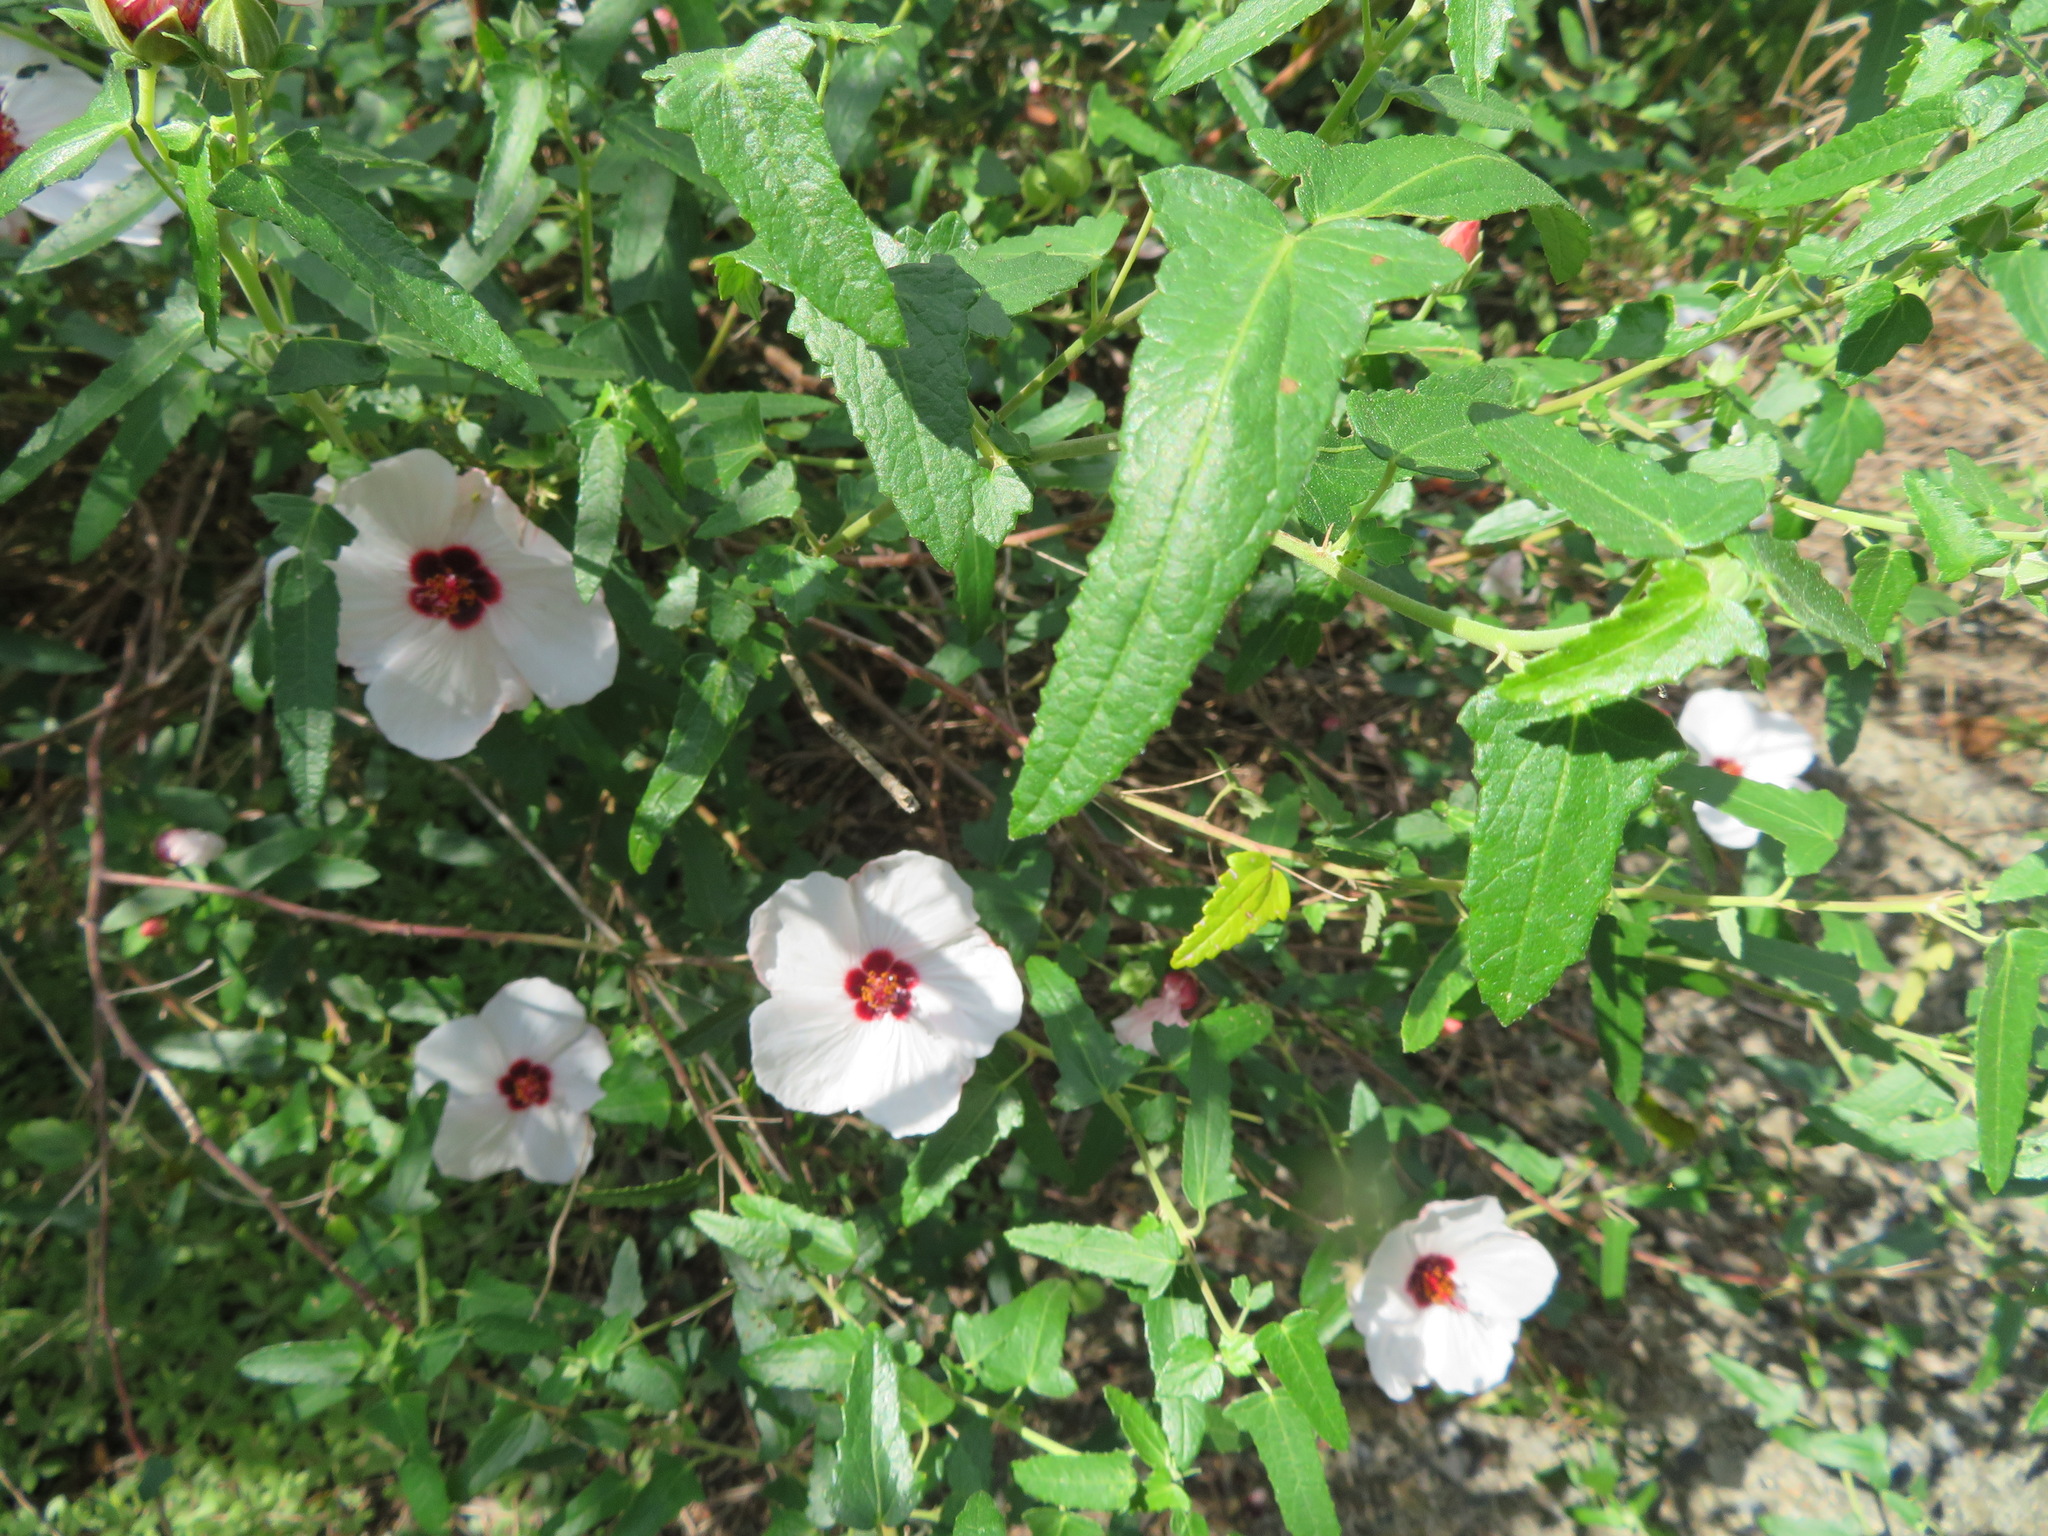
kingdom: Plantae
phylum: Tracheophyta
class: Magnoliopsida
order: Malvales
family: Malvaceae
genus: Pavonia
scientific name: Pavonia hastata
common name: Spearleaf swampmallow
